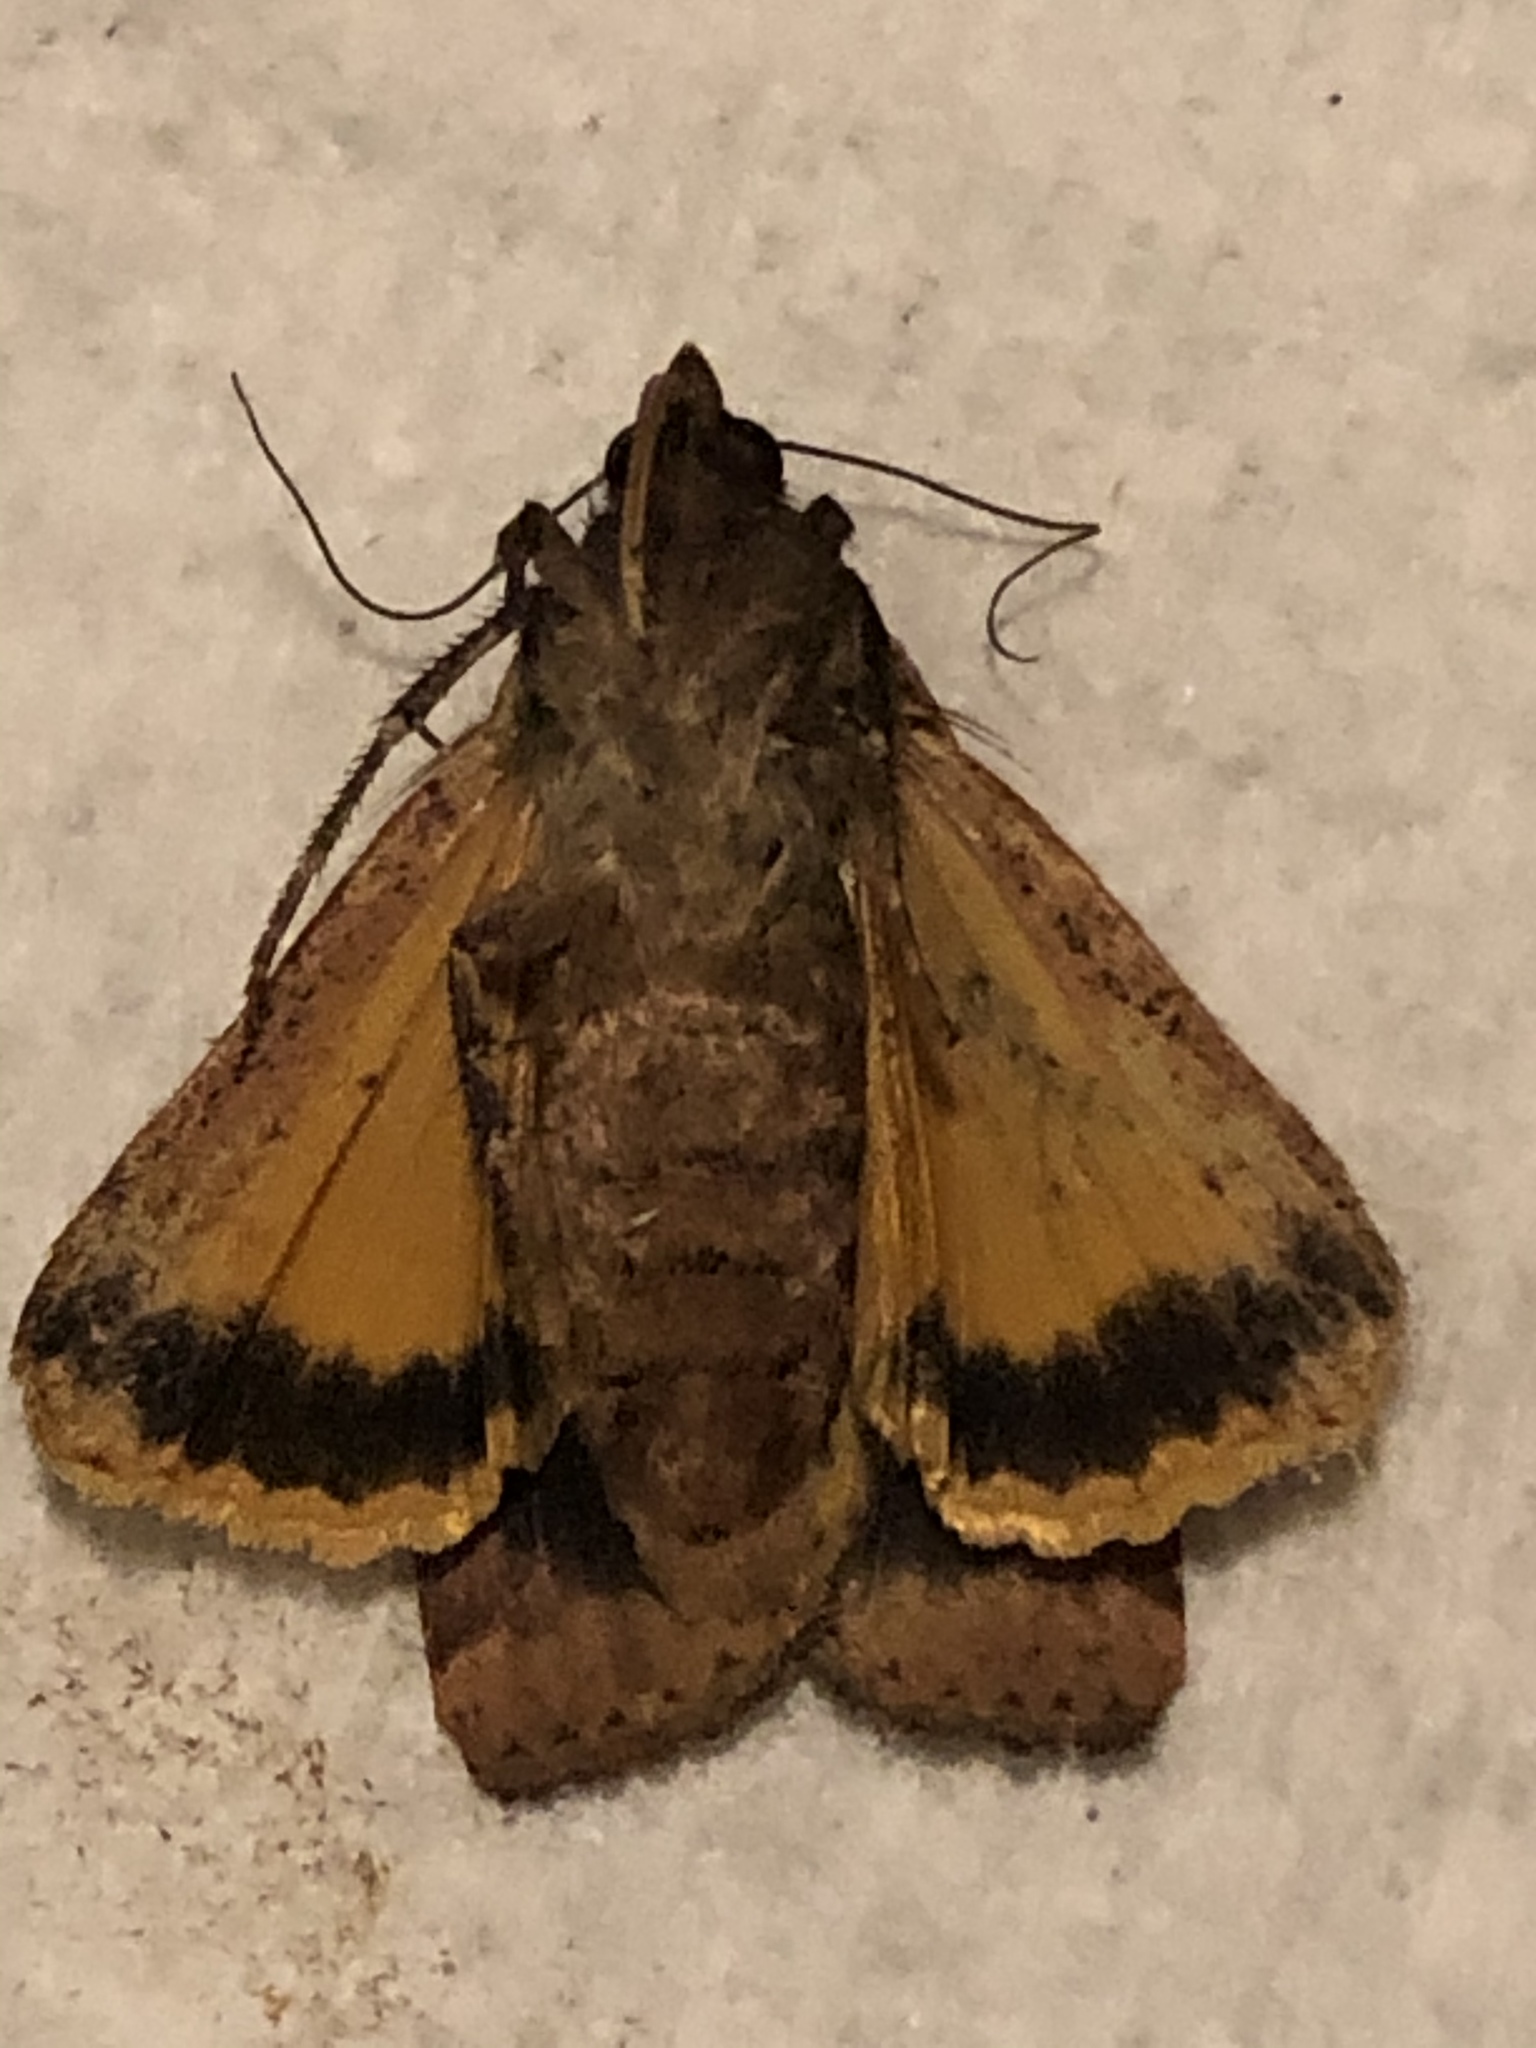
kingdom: Animalia
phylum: Arthropoda
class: Insecta
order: Lepidoptera
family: Noctuidae
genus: Noctua
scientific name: Noctua pronuba
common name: Large yellow underwing
